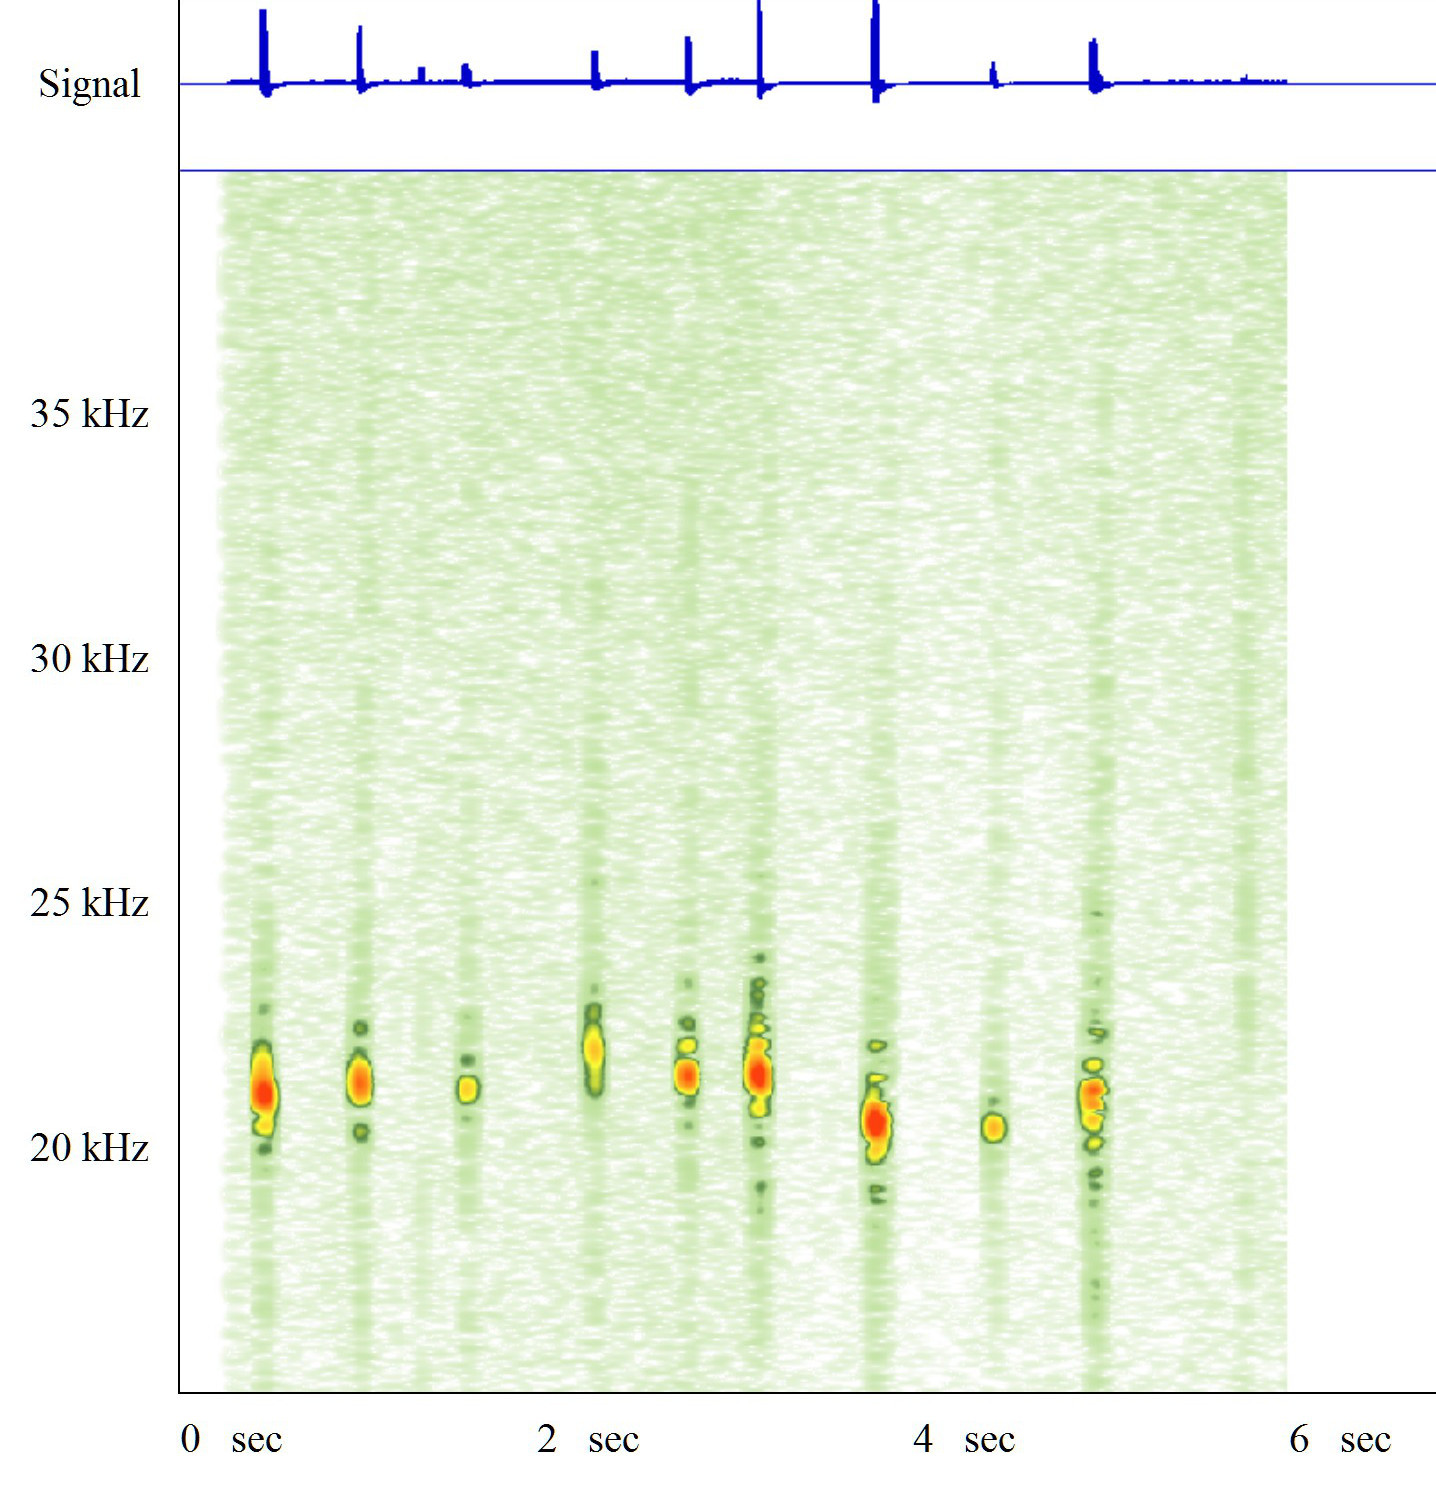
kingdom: Animalia
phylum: Chordata
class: Mammalia
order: Chiroptera
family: Vespertilionidae
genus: Nyctalus
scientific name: Nyctalus noctula
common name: Noctule
